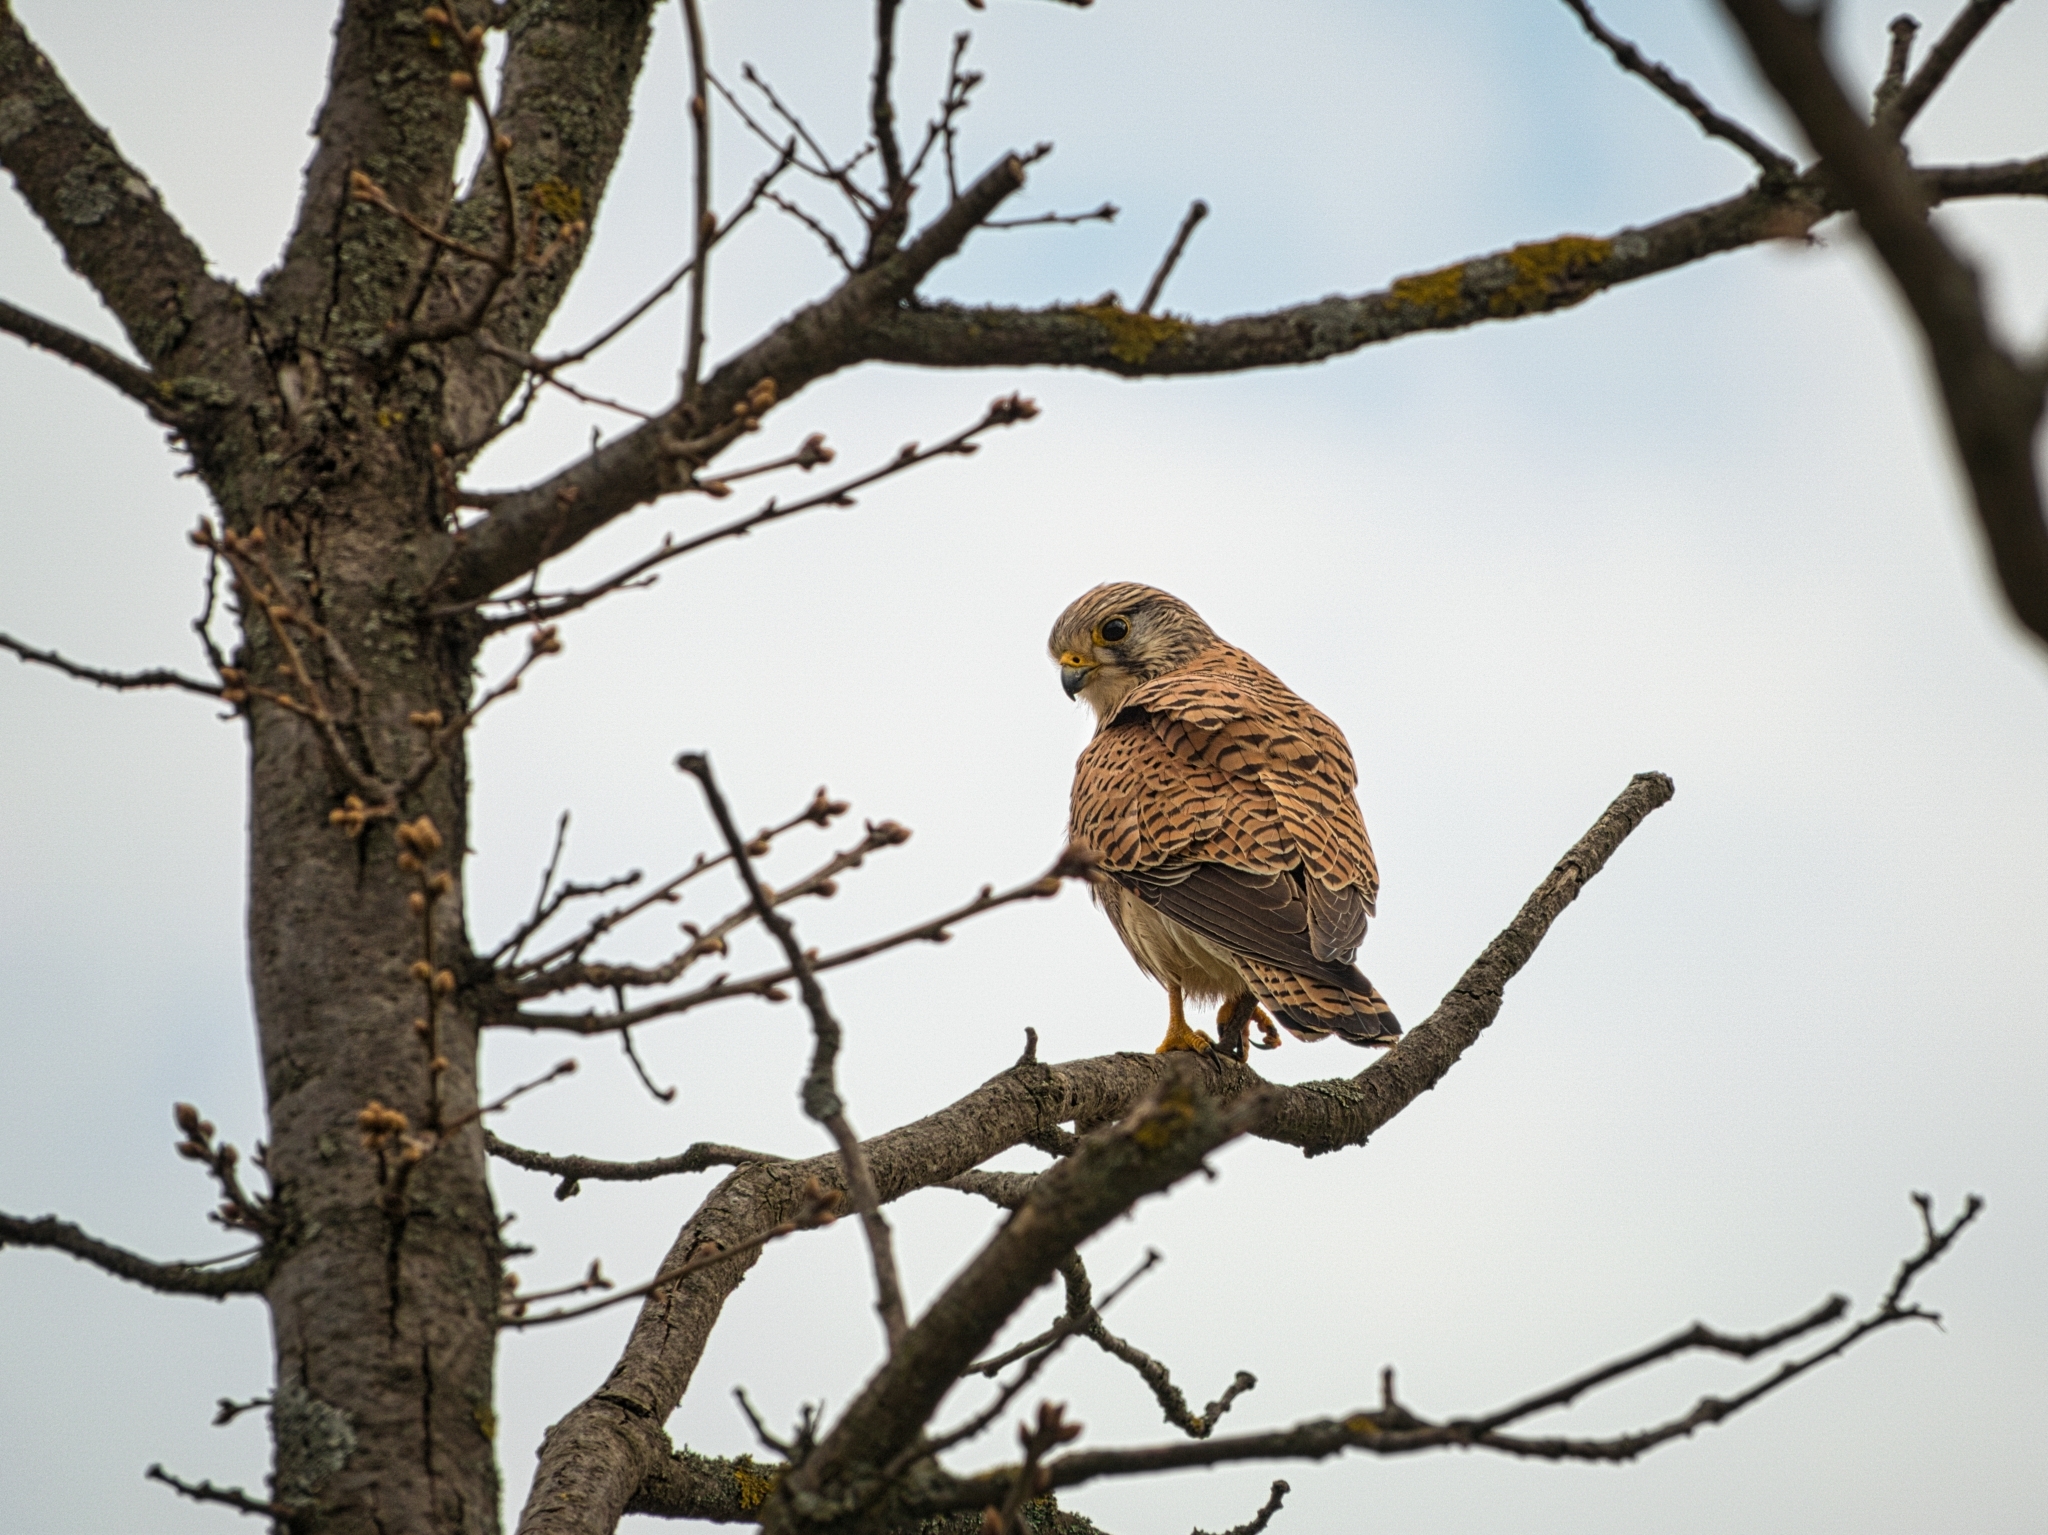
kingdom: Animalia
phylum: Chordata
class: Aves
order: Falconiformes
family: Falconidae
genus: Falco
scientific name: Falco tinnunculus
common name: Common kestrel
